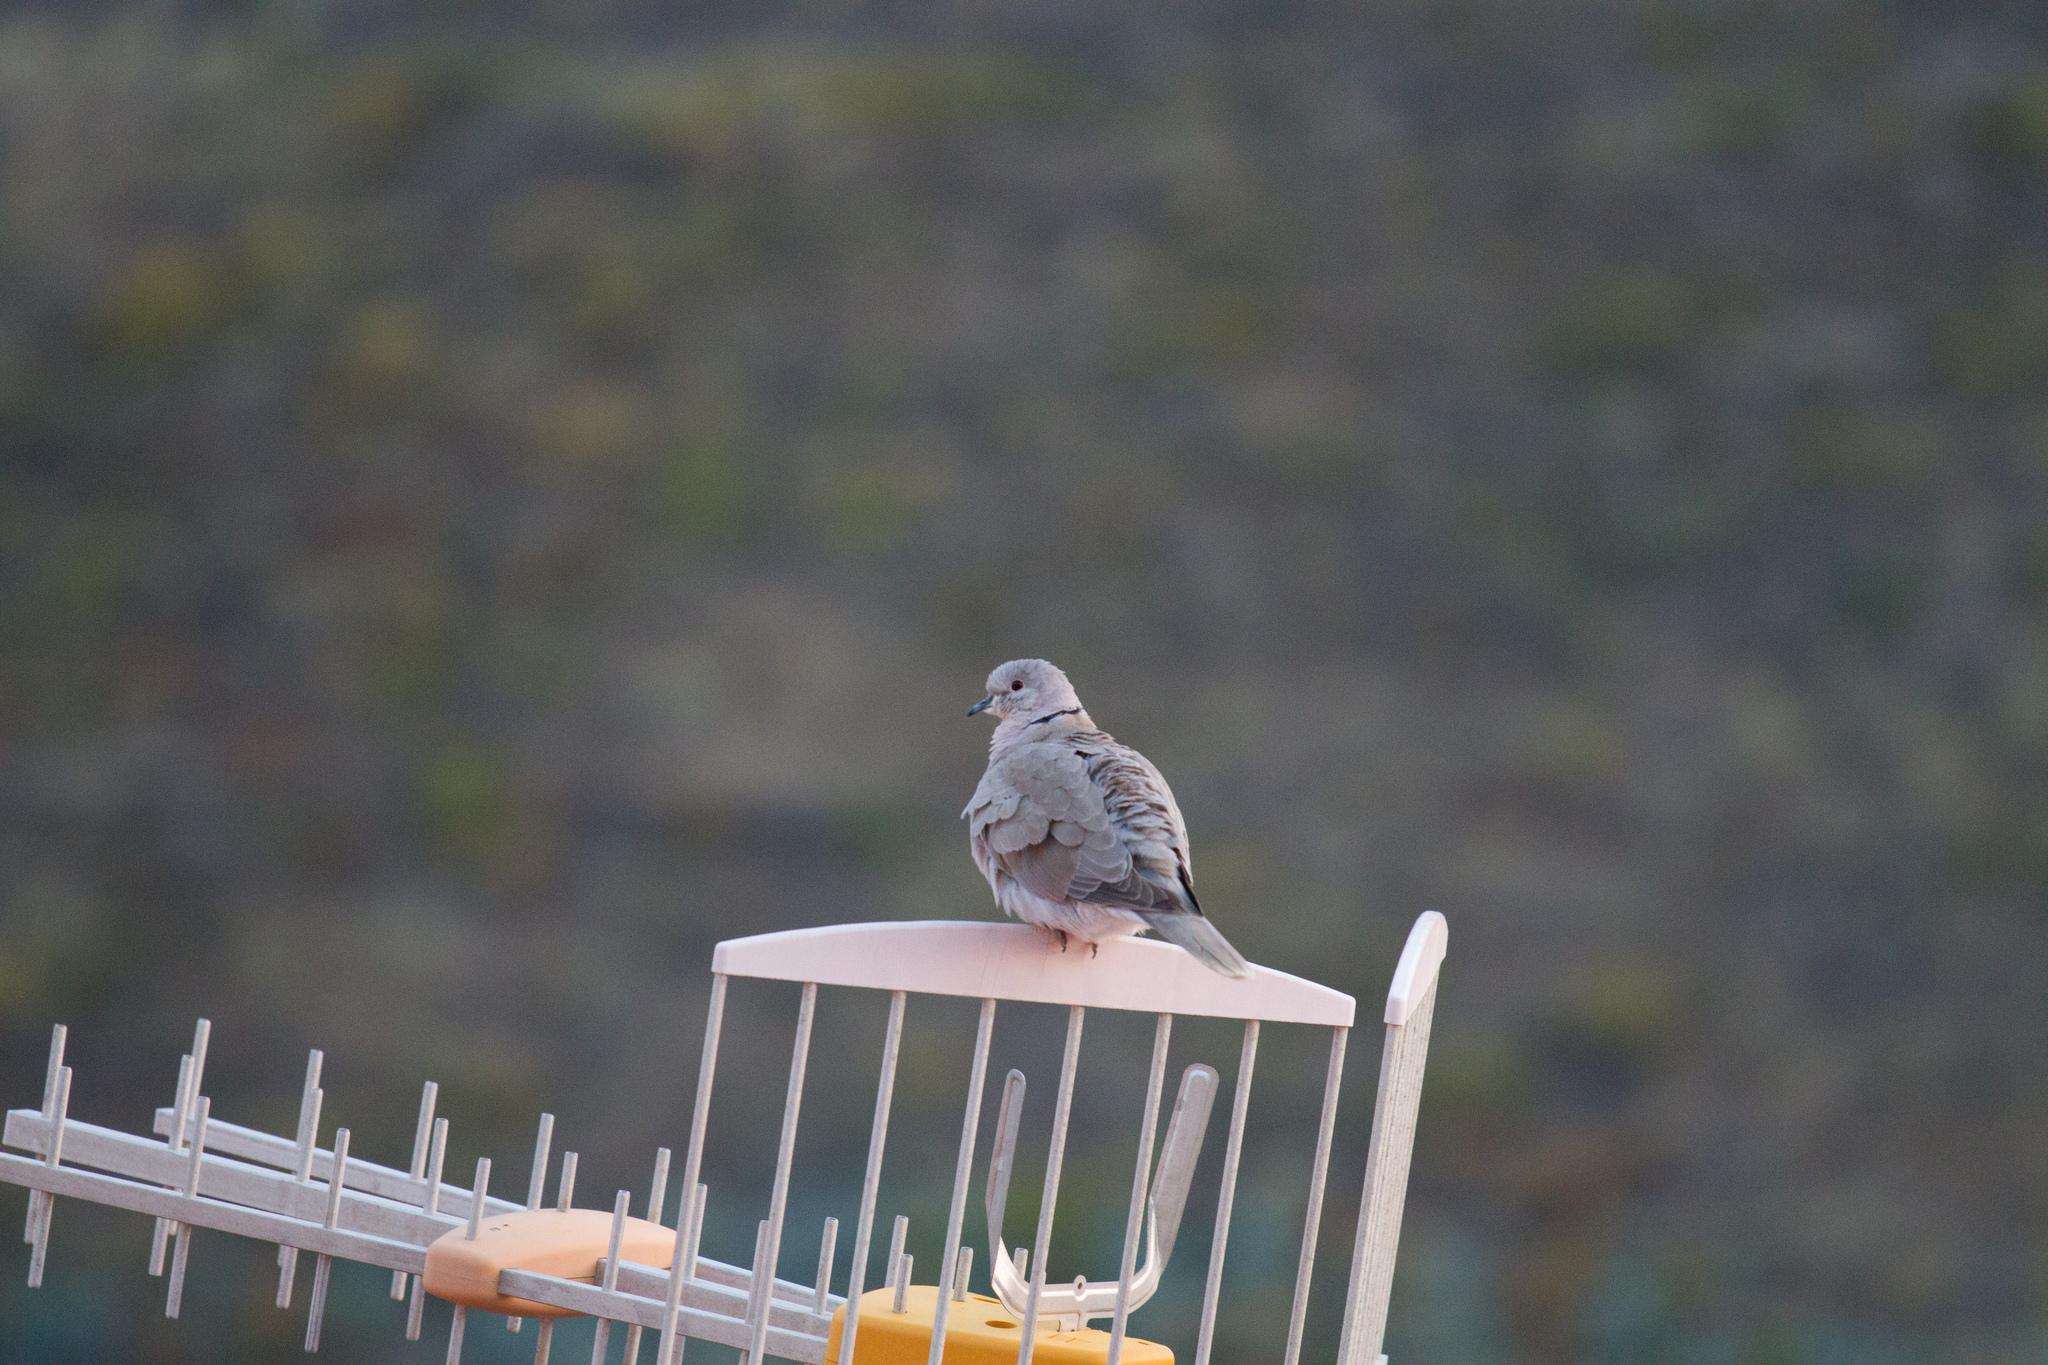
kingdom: Animalia
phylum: Chordata
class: Aves
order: Columbiformes
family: Columbidae
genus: Streptopelia
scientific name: Streptopelia decaocto
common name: Eurasian collared dove
